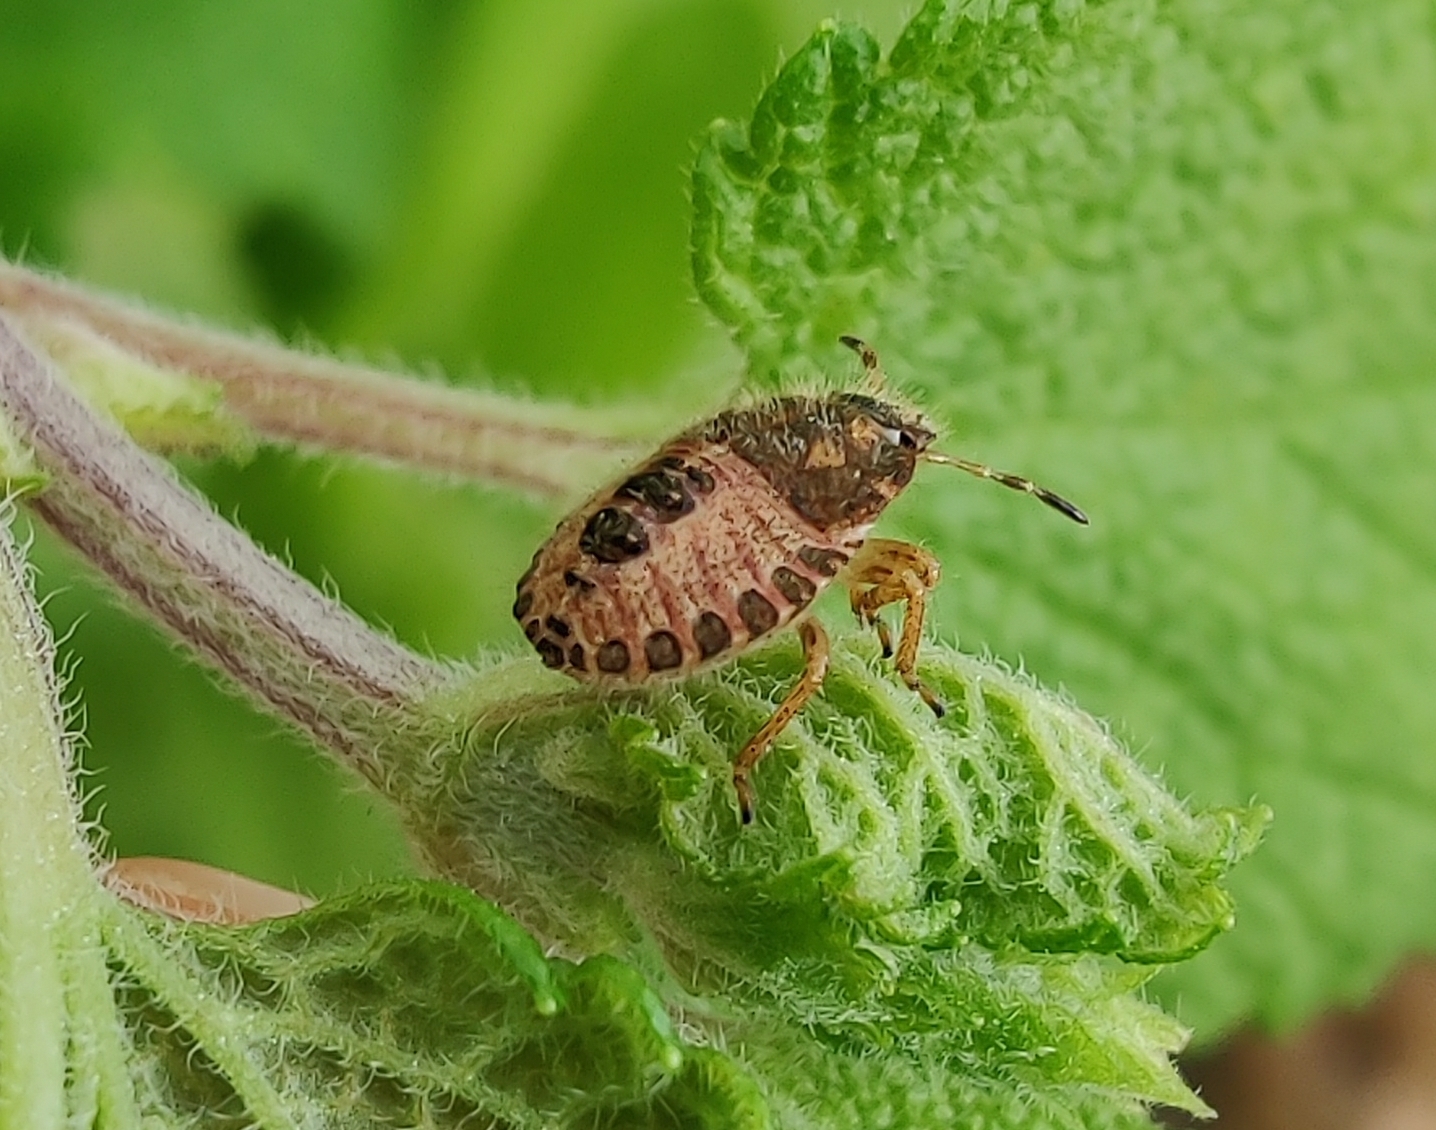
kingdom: Animalia
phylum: Arthropoda
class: Insecta
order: Hemiptera
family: Pentatomidae
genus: Dolycoris
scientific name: Dolycoris baccarum
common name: Sloe bug
